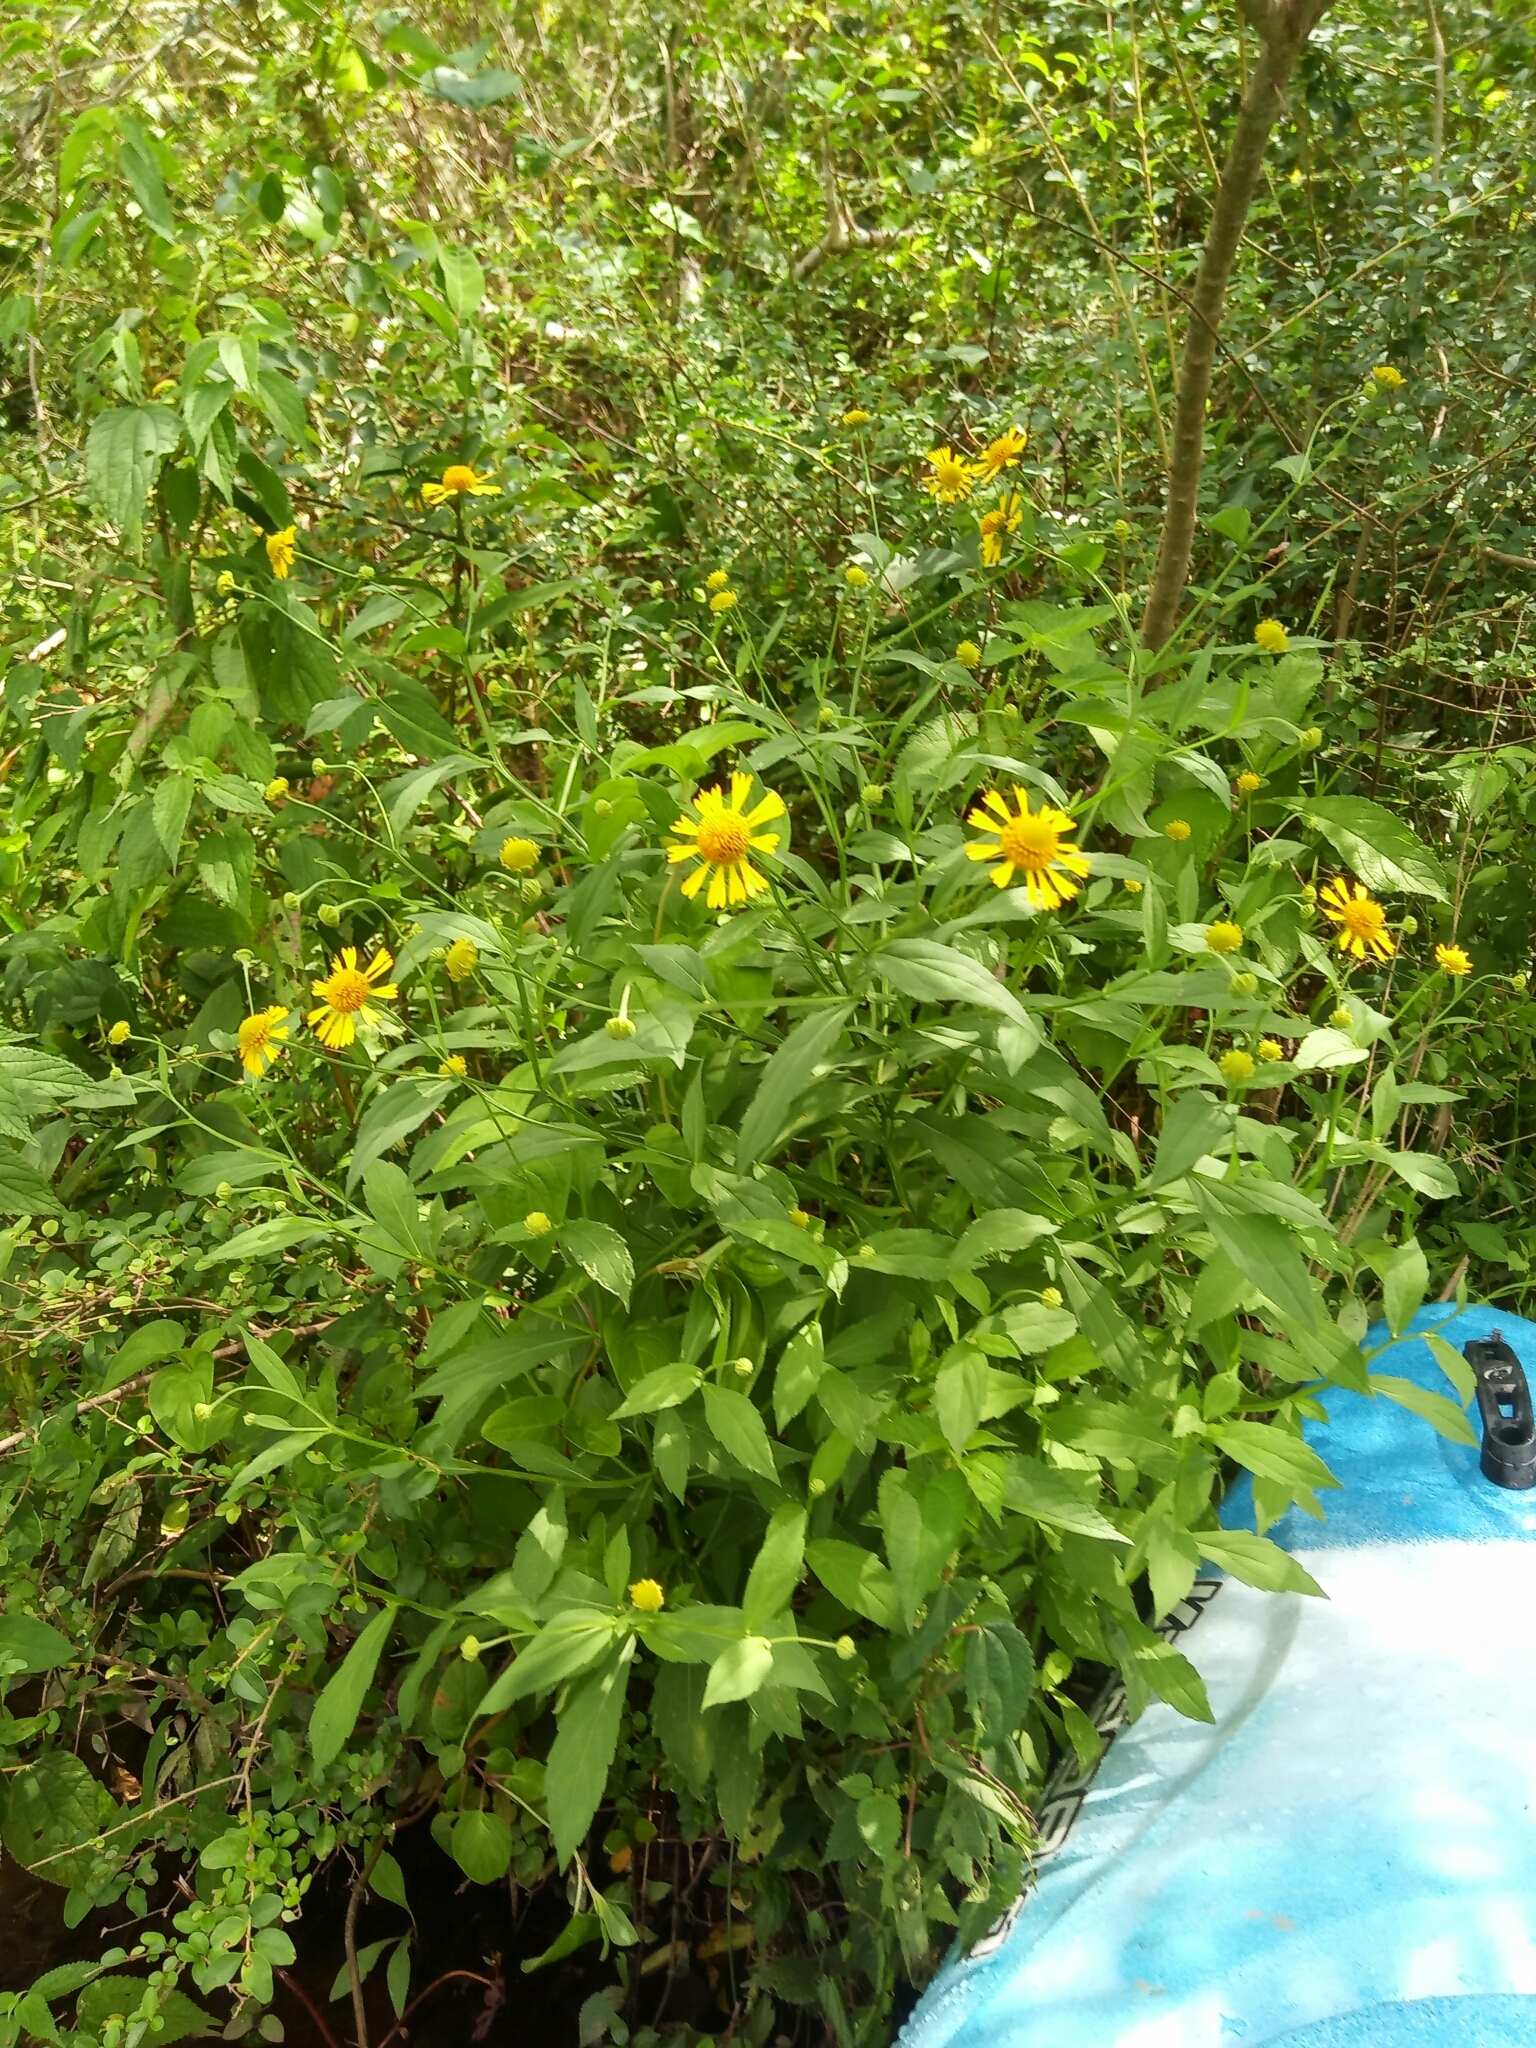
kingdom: Plantae
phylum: Tracheophyta
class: Magnoliopsida
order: Asterales
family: Asteraceae
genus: Helenium
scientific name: Helenium autumnale
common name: Sneezeweed
